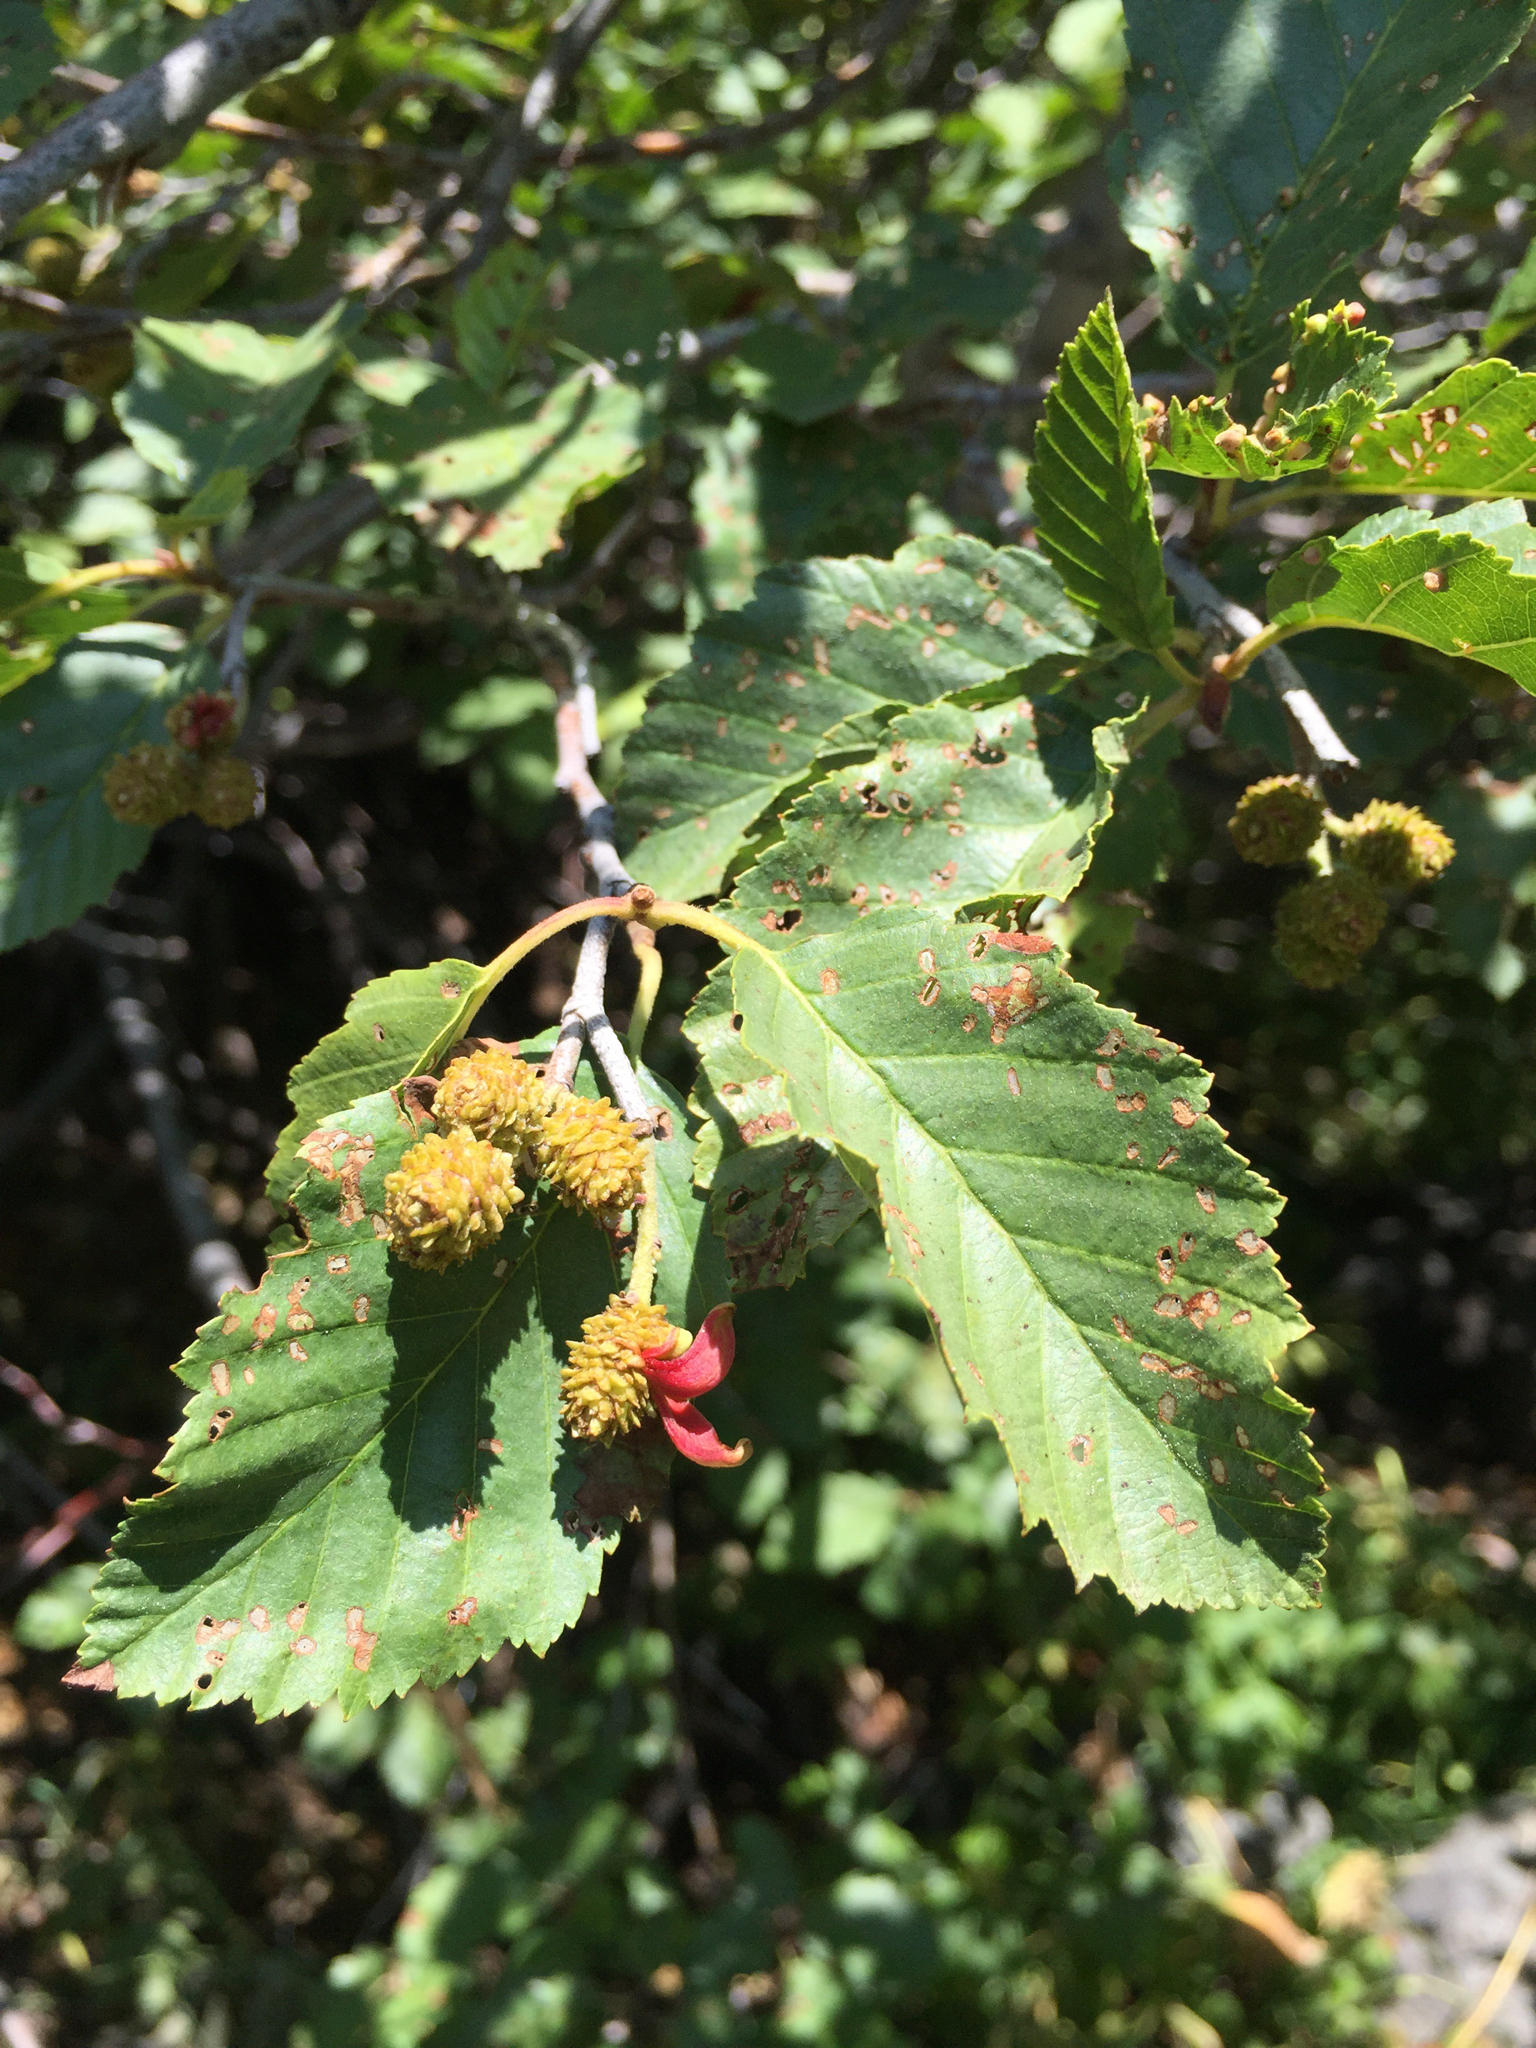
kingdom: Plantae
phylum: Tracheophyta
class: Magnoliopsida
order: Fagales
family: Betulaceae
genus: Alnus
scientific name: Alnus incana
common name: Grey alder
